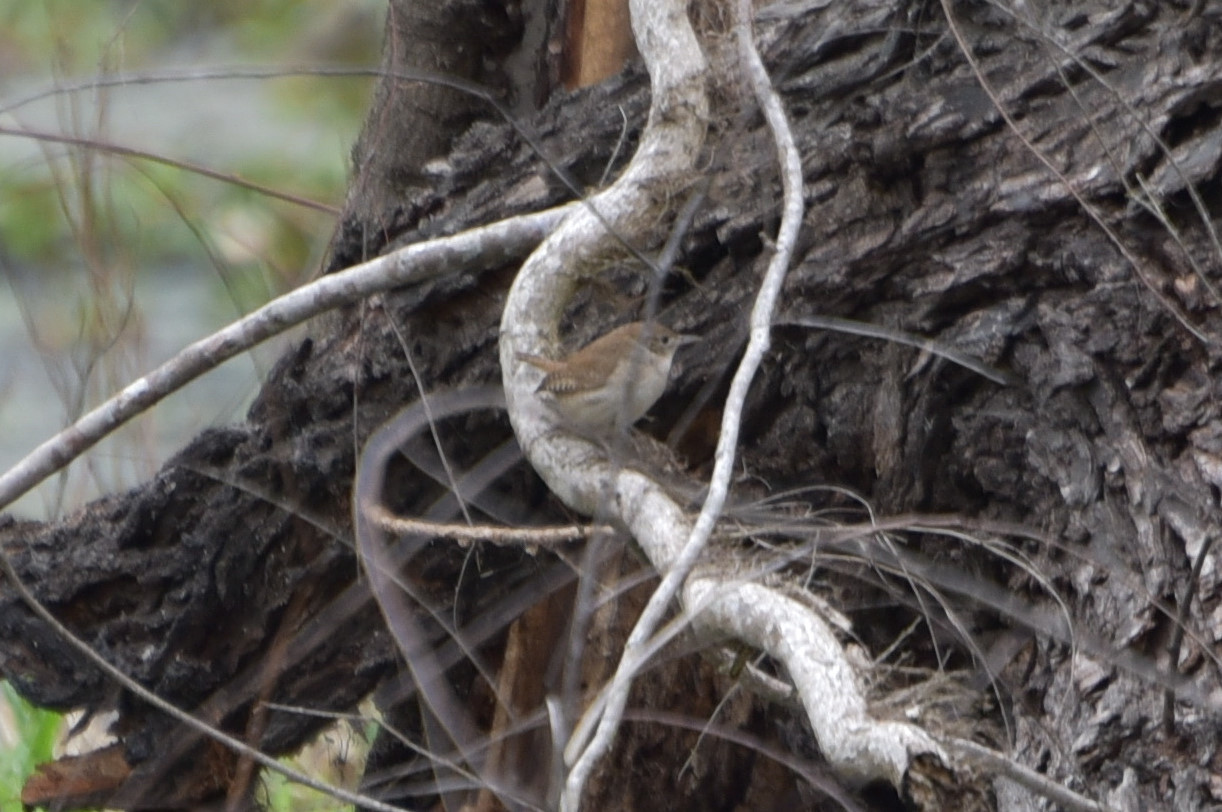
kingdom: Animalia
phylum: Chordata
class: Aves
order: Passeriformes
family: Troglodytidae
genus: Troglodytes
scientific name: Troglodytes aedon
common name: House wren
